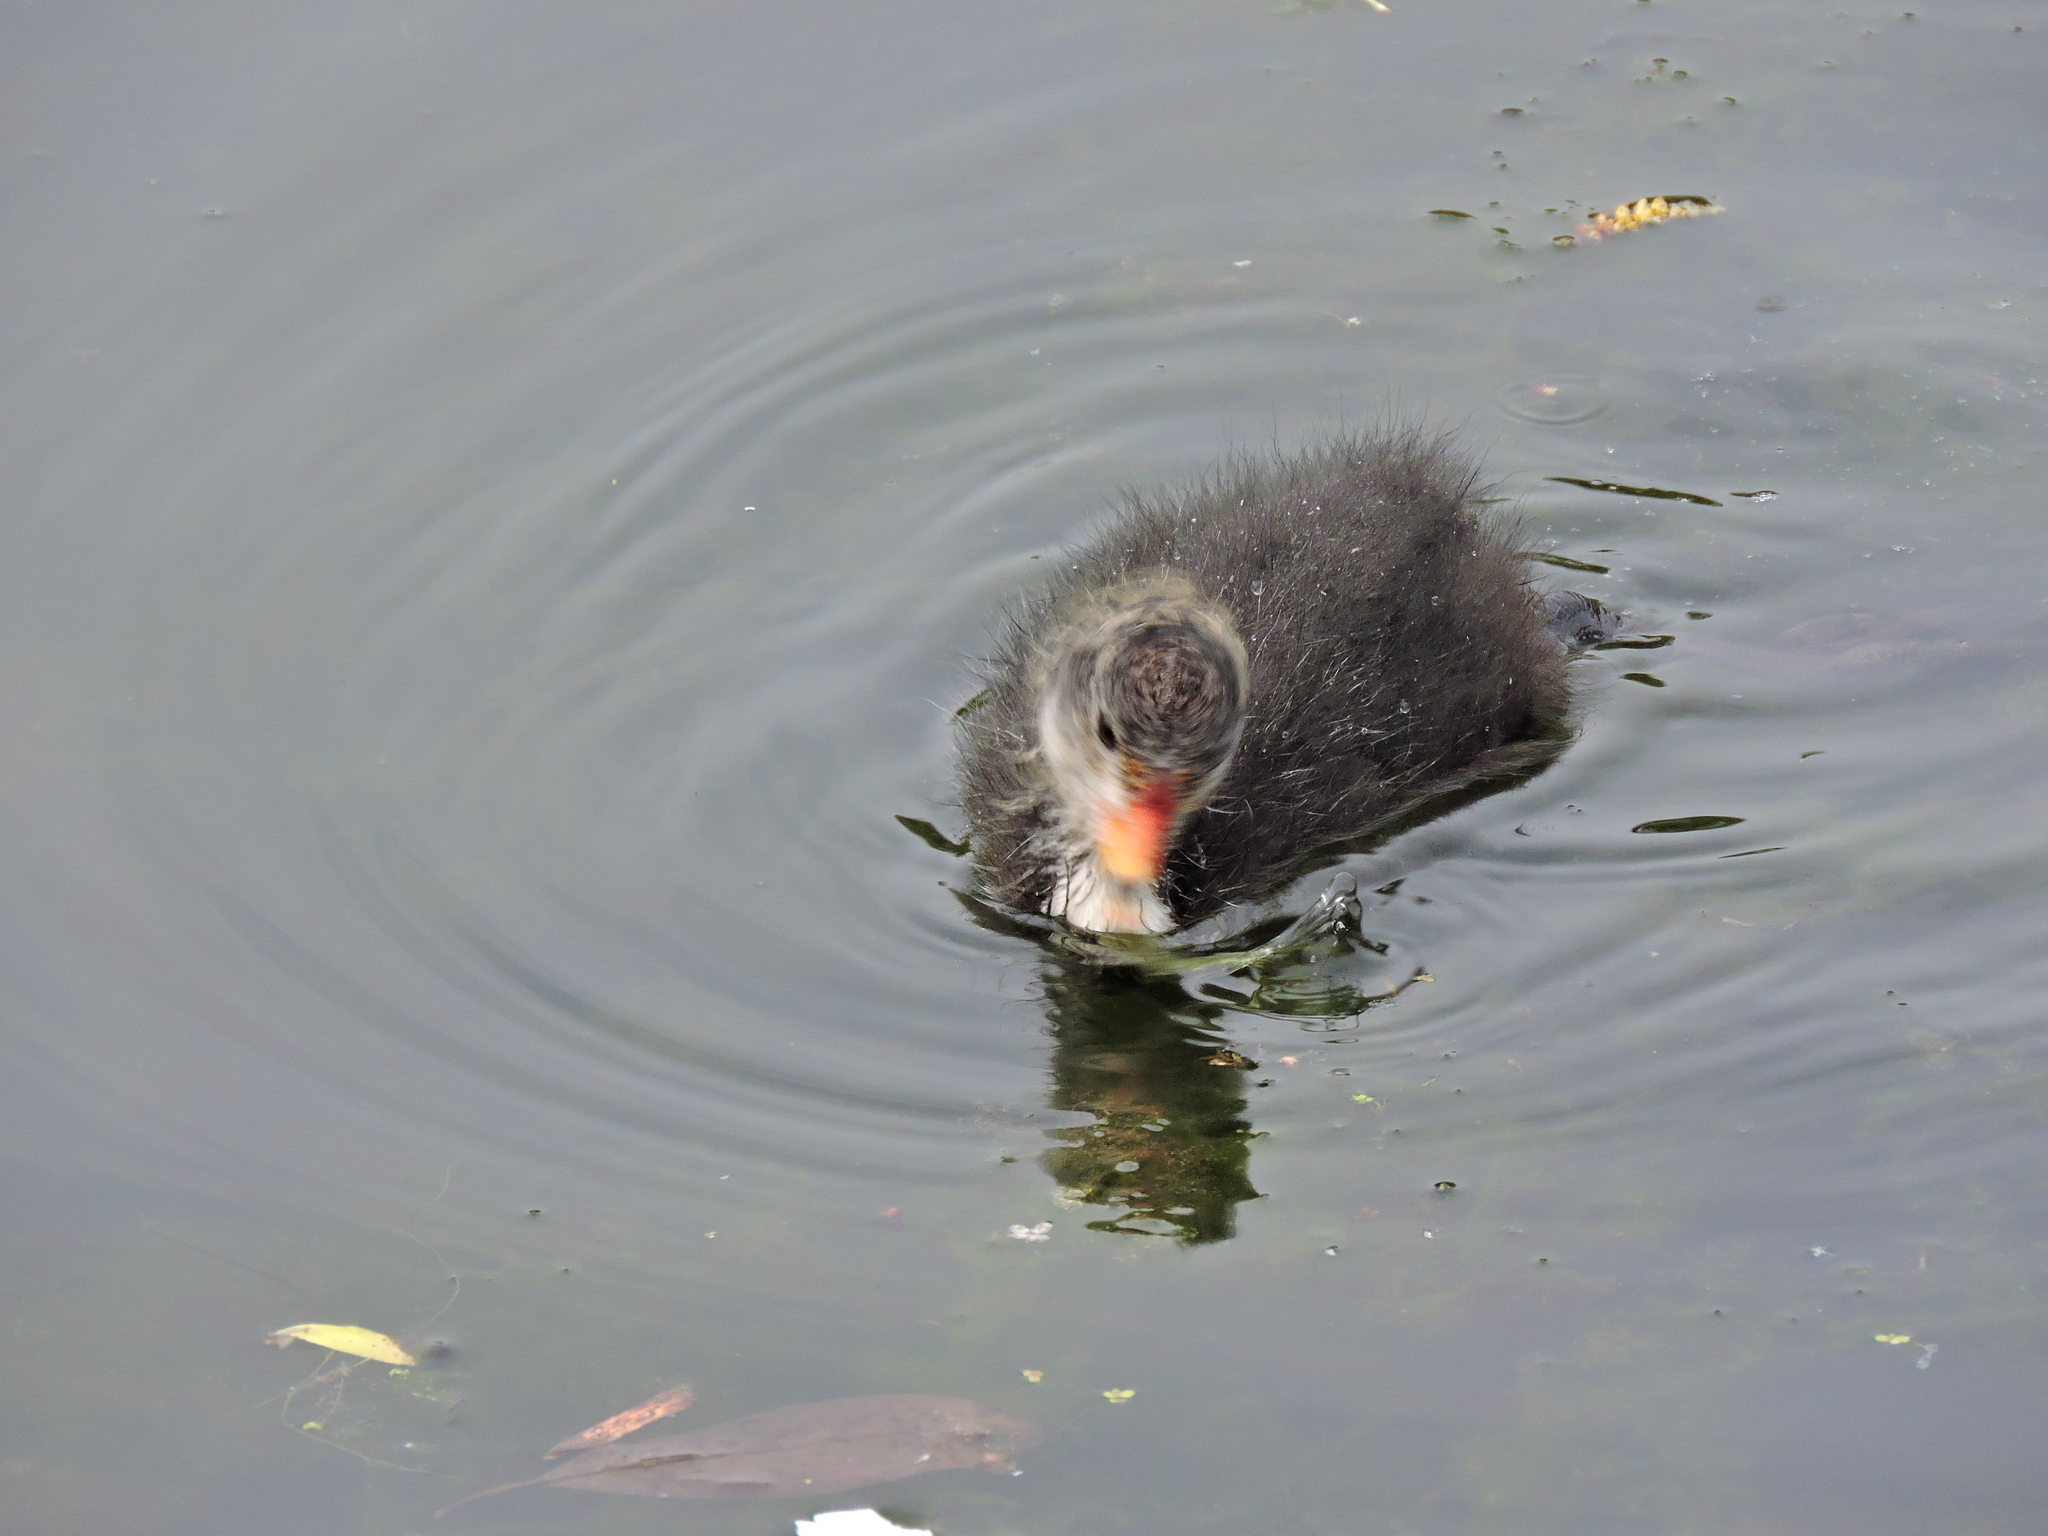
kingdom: Animalia
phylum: Chordata
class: Aves
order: Gruiformes
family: Rallidae
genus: Gallinula
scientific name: Gallinula chloropus
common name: Common moorhen
